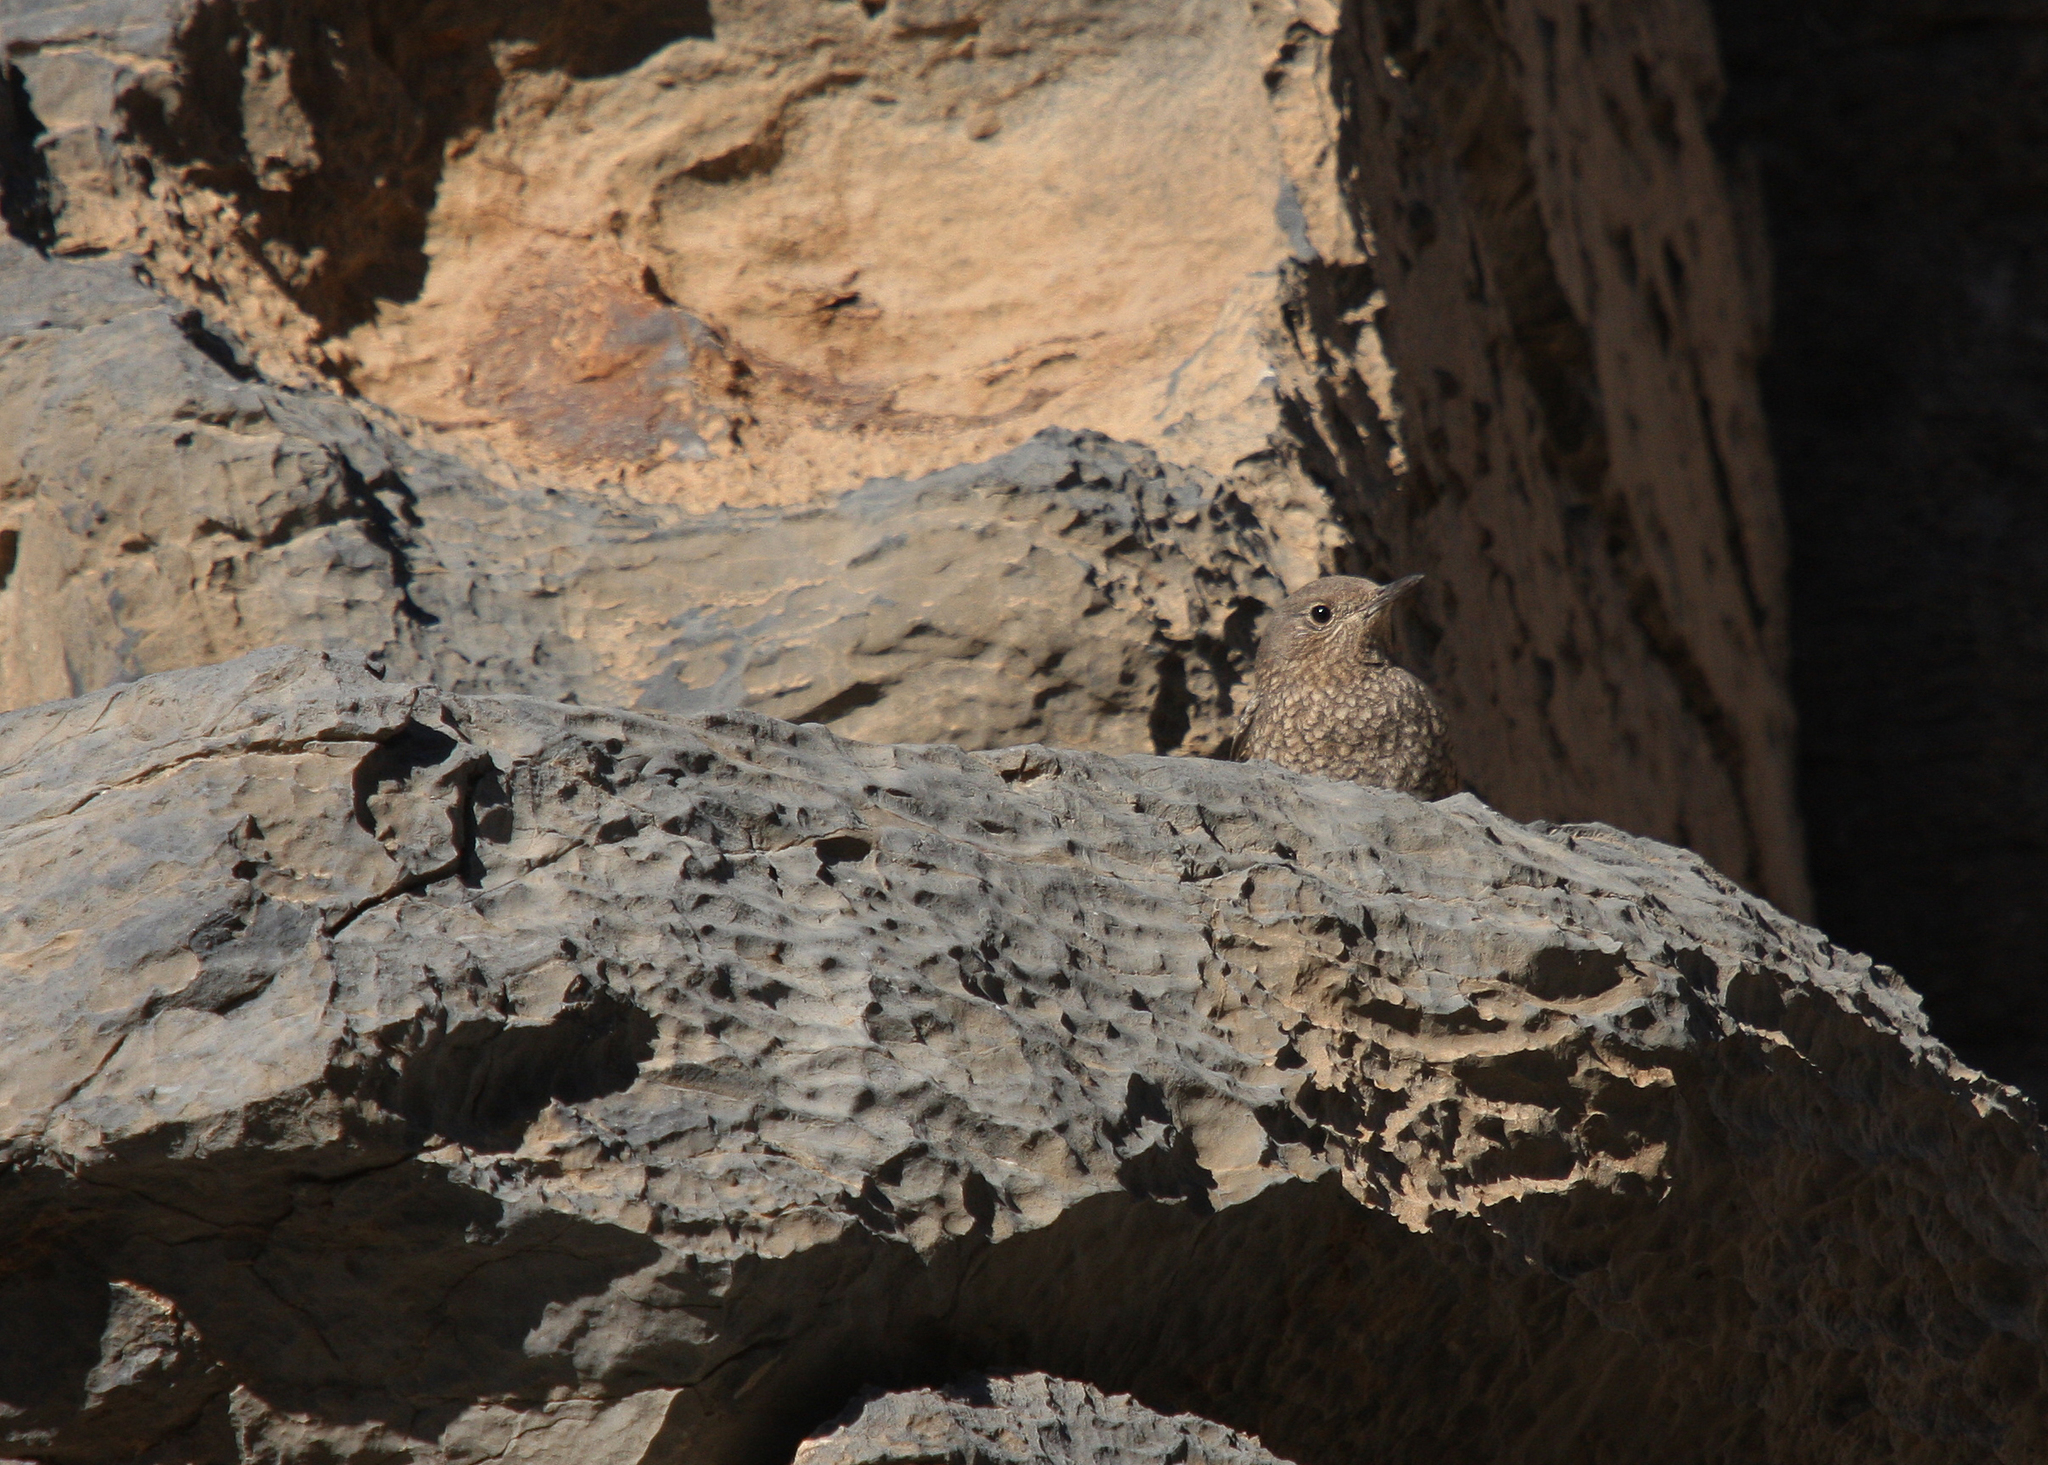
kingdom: Animalia
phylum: Chordata
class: Aves
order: Passeriformes
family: Muscicapidae
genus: Monticola
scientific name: Monticola solitarius
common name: Blue rock thrush
